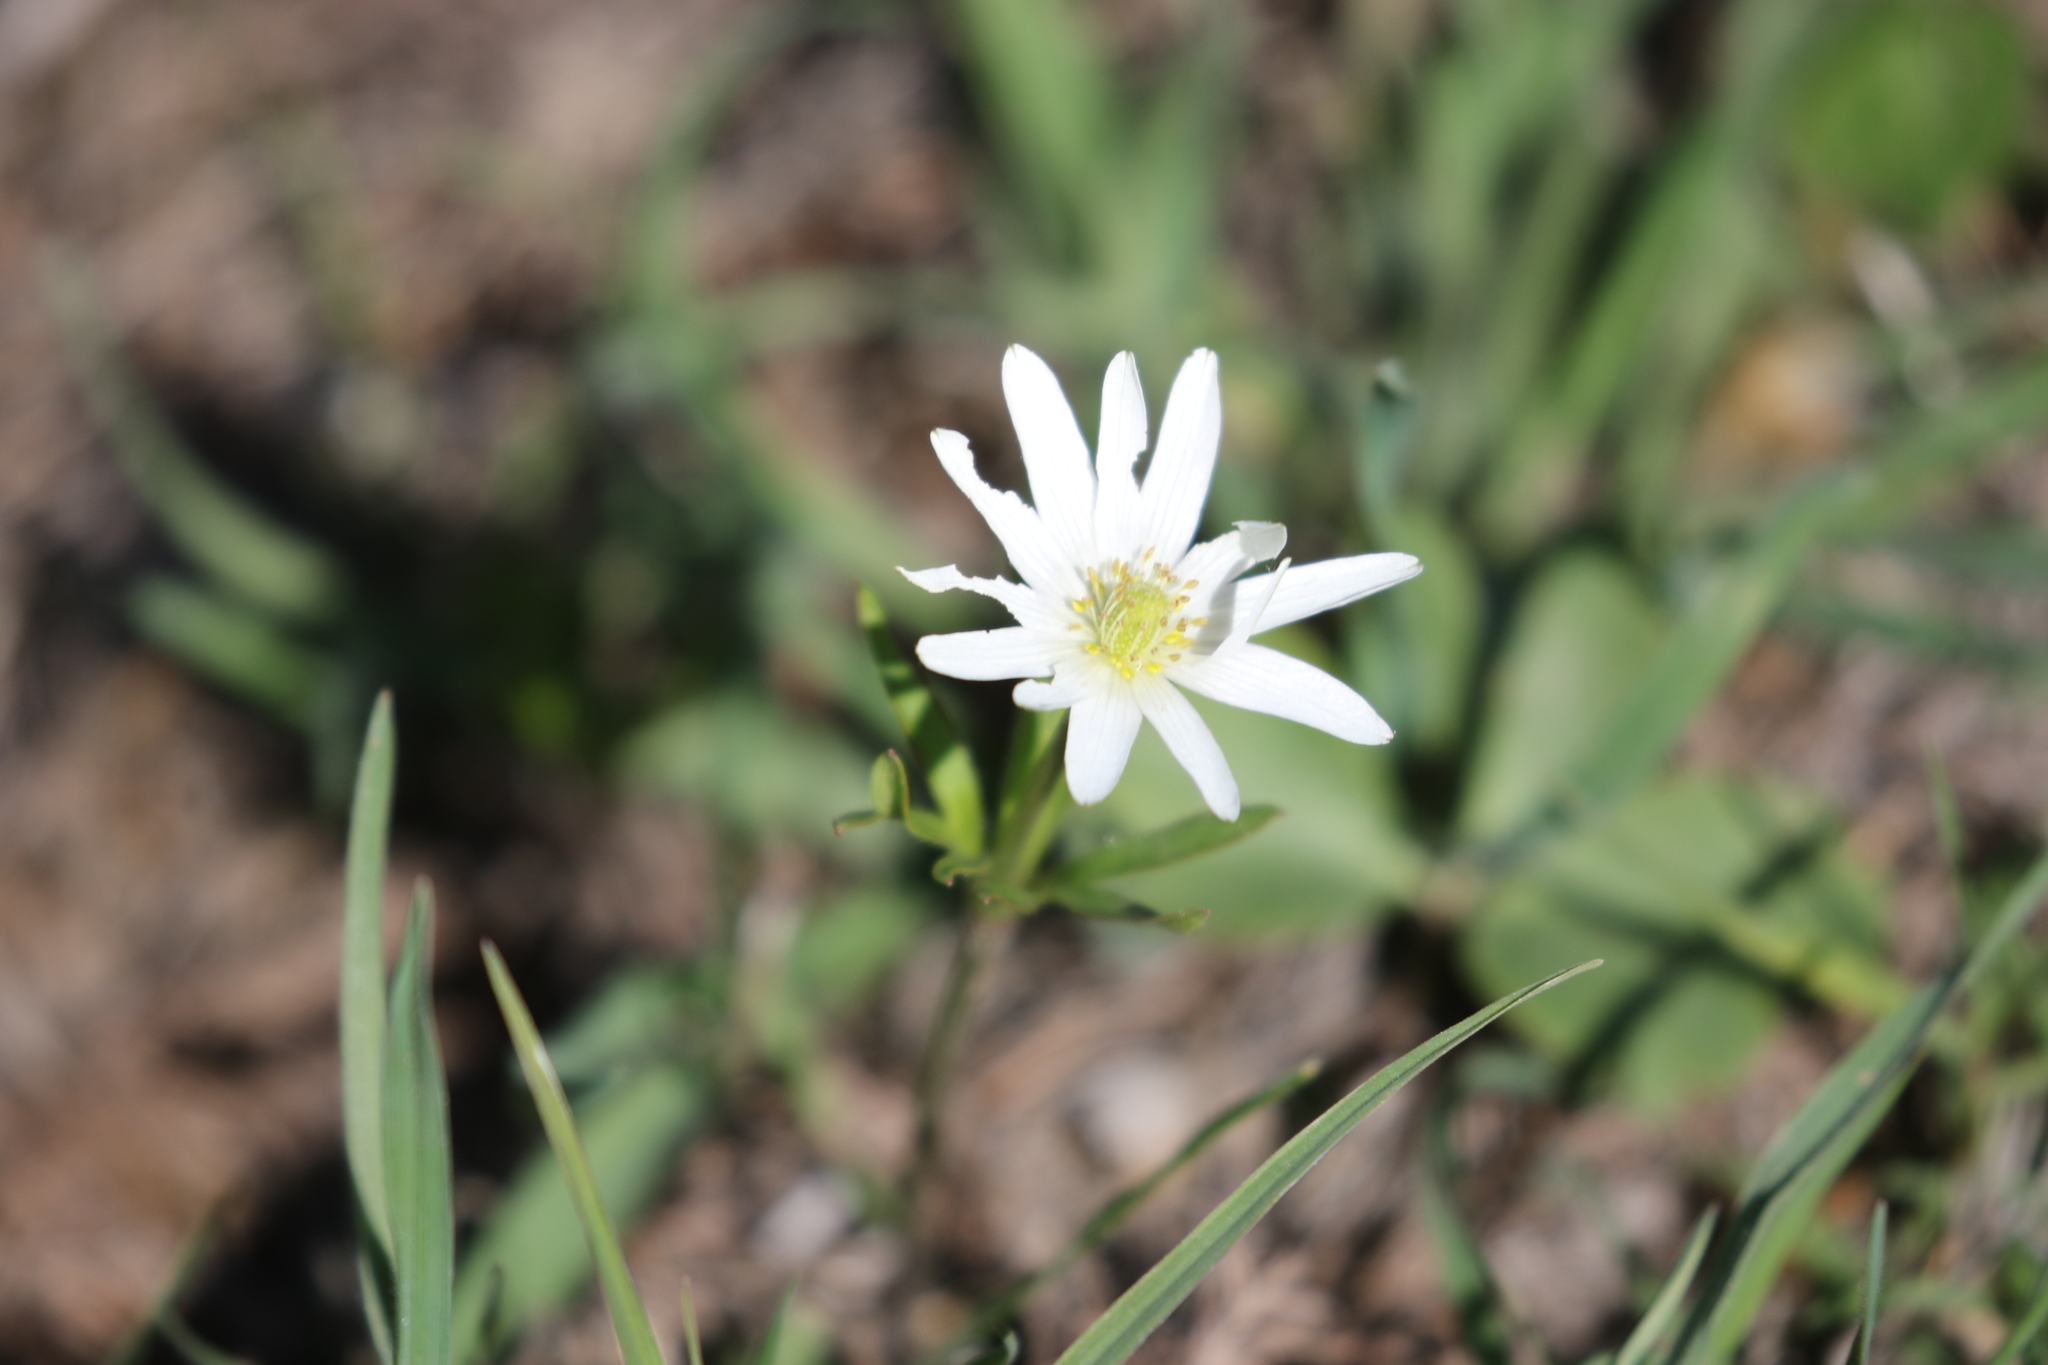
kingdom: Plantae
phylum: Tracheophyta
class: Magnoliopsida
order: Ranunculales
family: Ranunculaceae
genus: Anemone
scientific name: Anemone berlandieri
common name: Ten-petal anemone
